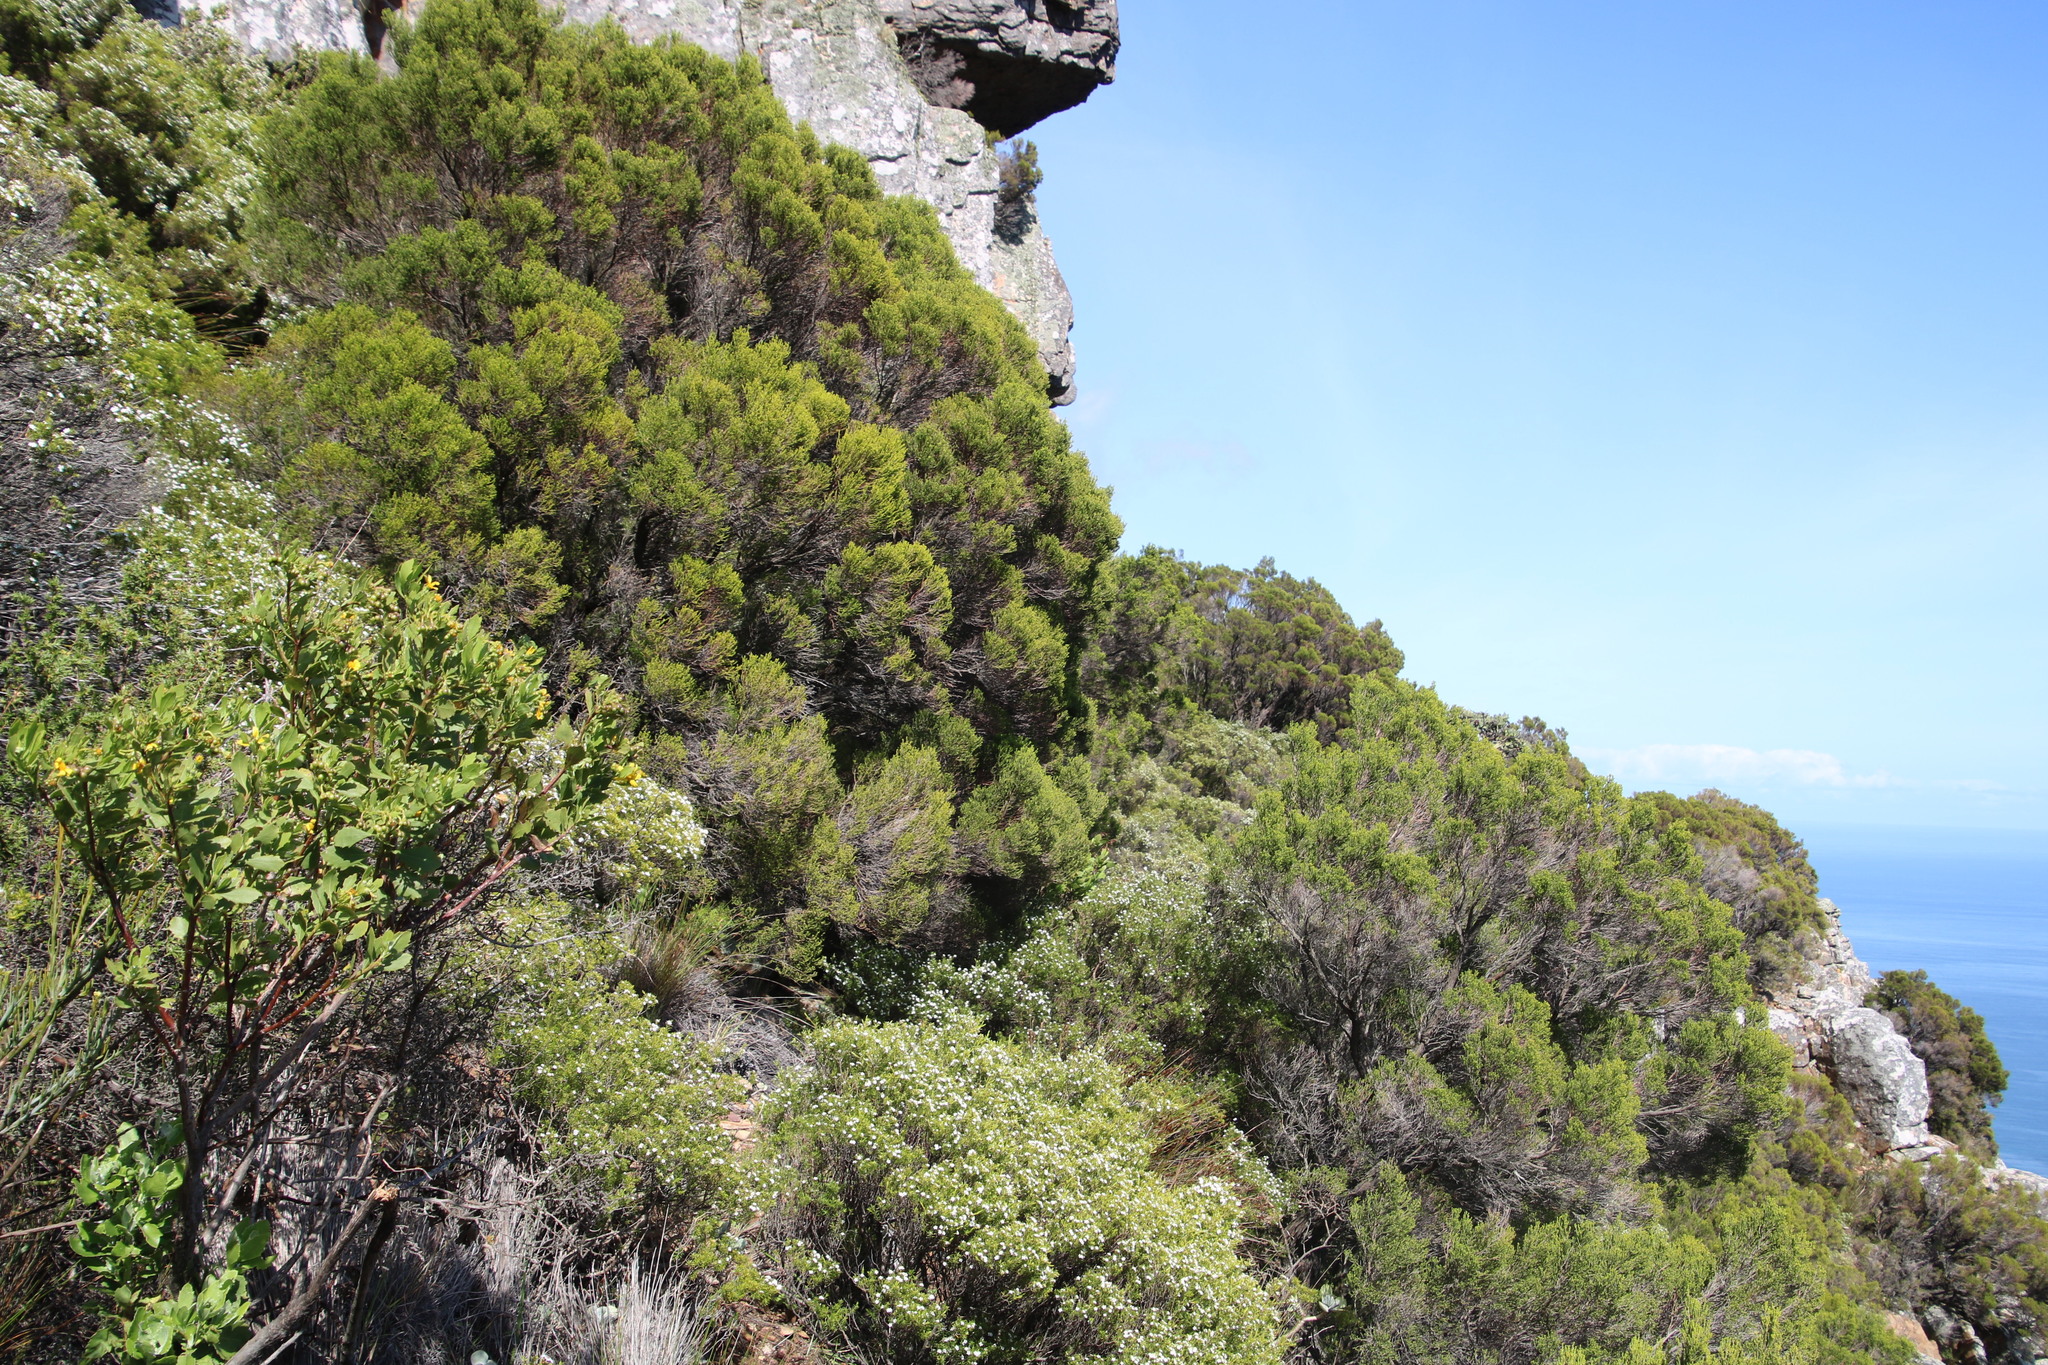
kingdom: Plantae
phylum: Tracheophyta
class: Magnoliopsida
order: Ericales
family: Ericaceae
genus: Erica
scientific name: Erica tristis
